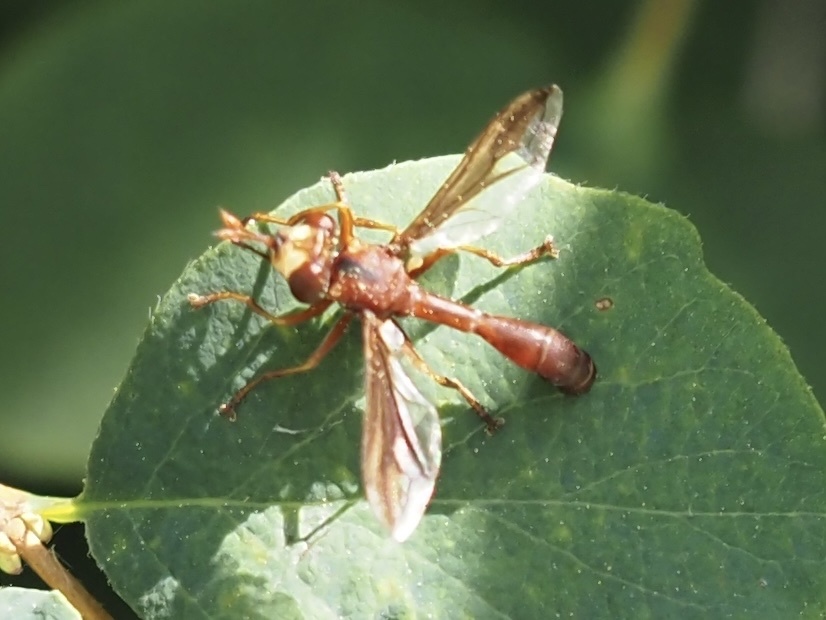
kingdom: Animalia
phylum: Arthropoda
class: Insecta
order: Diptera
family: Conopidae
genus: Physocephala
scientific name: Physocephala burgessi
